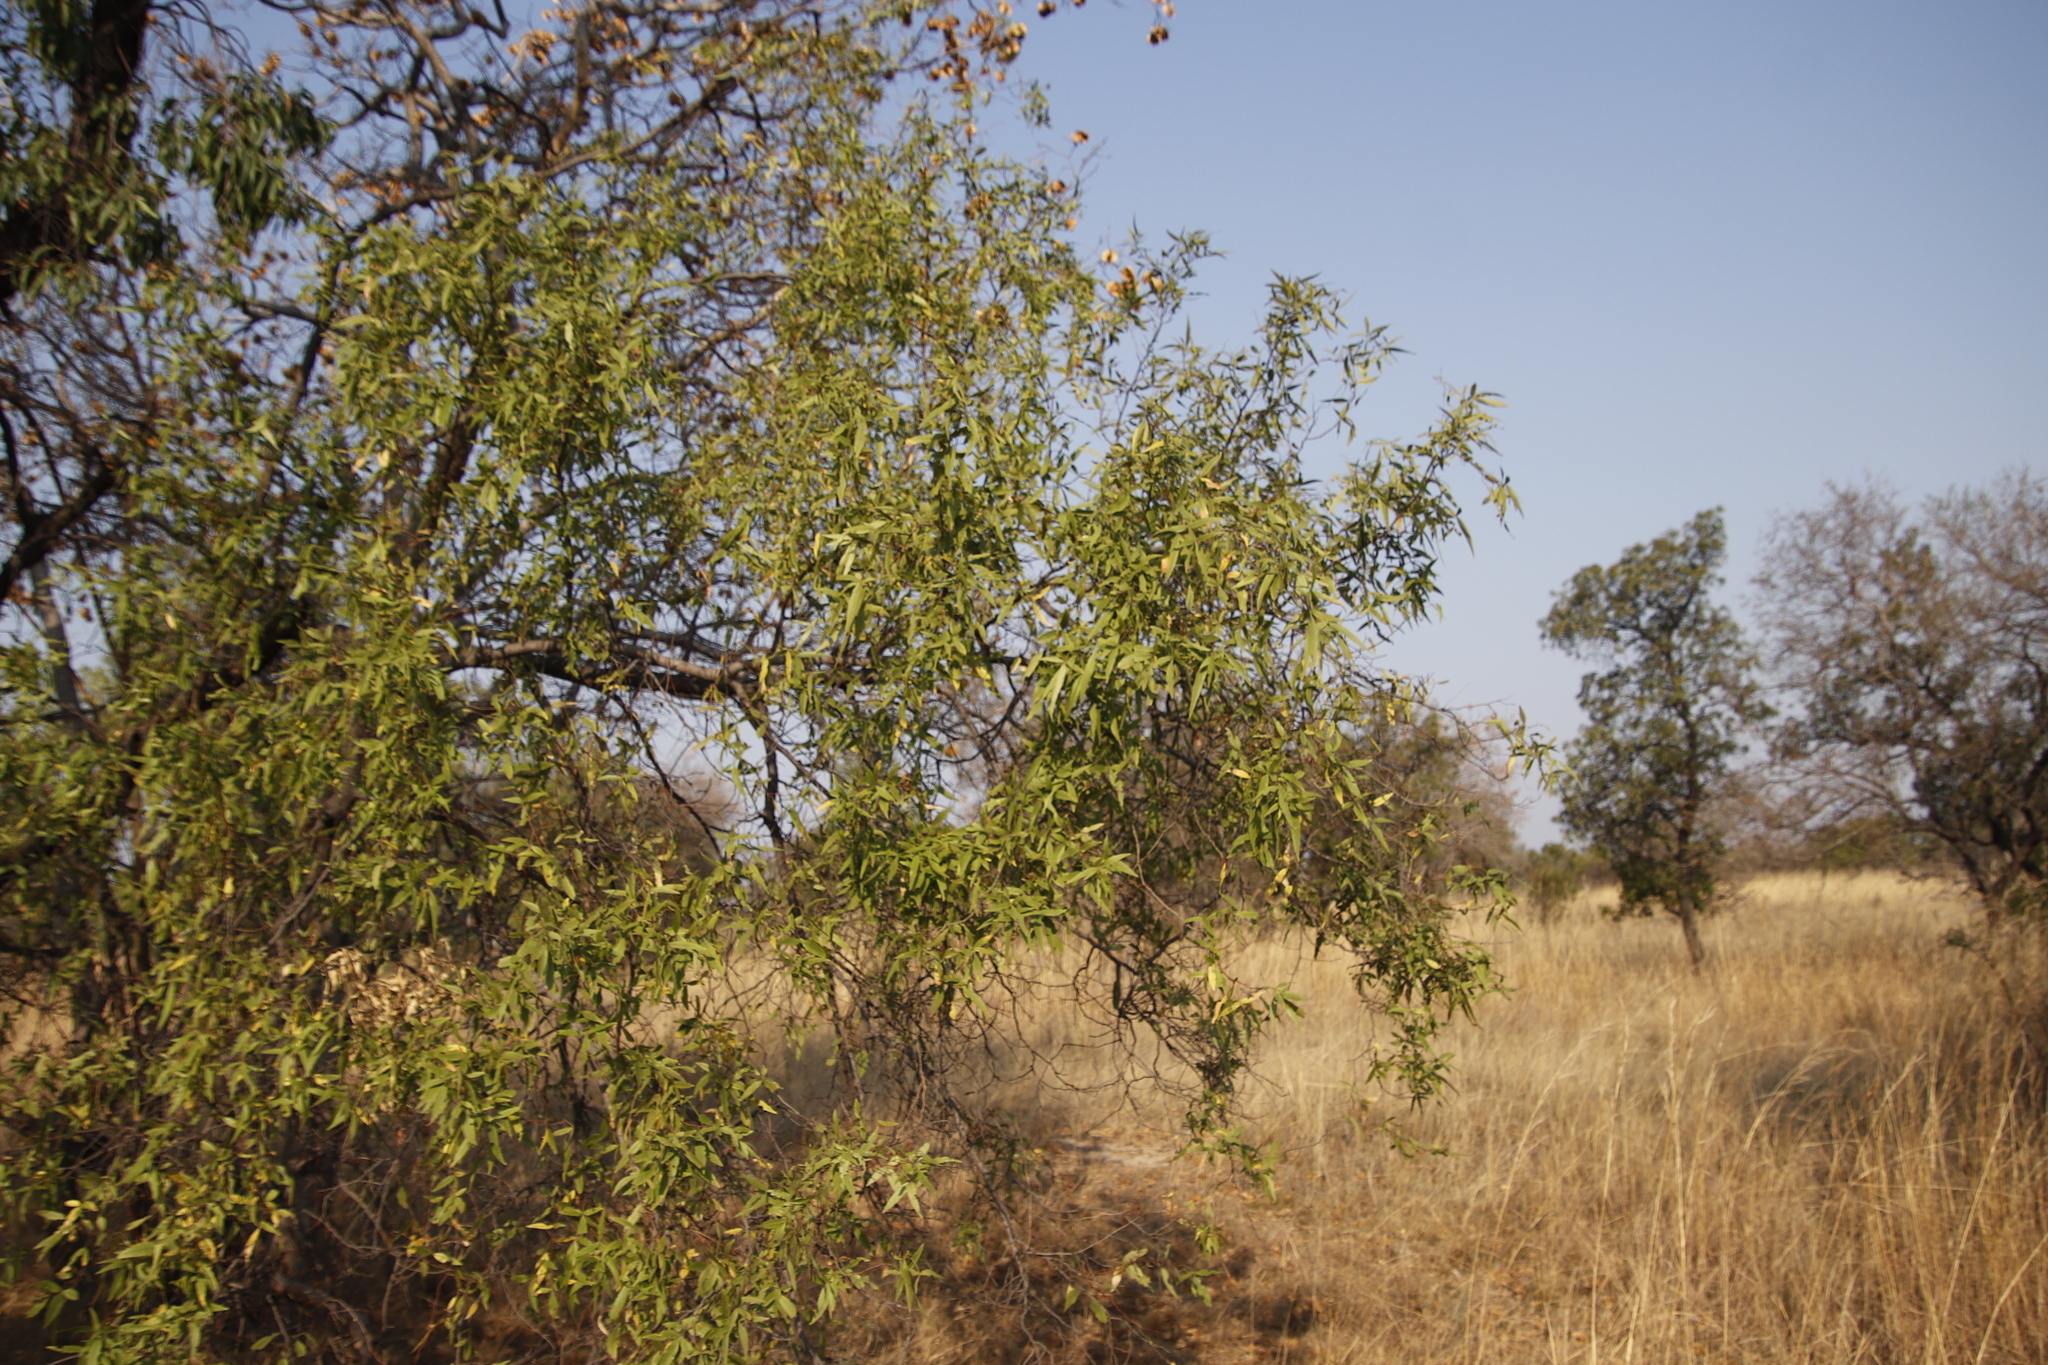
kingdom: Plantae
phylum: Tracheophyta
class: Magnoliopsida
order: Sapindales
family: Anacardiaceae
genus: Searsia
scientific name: Searsia leptodictya
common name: Mountain karee
